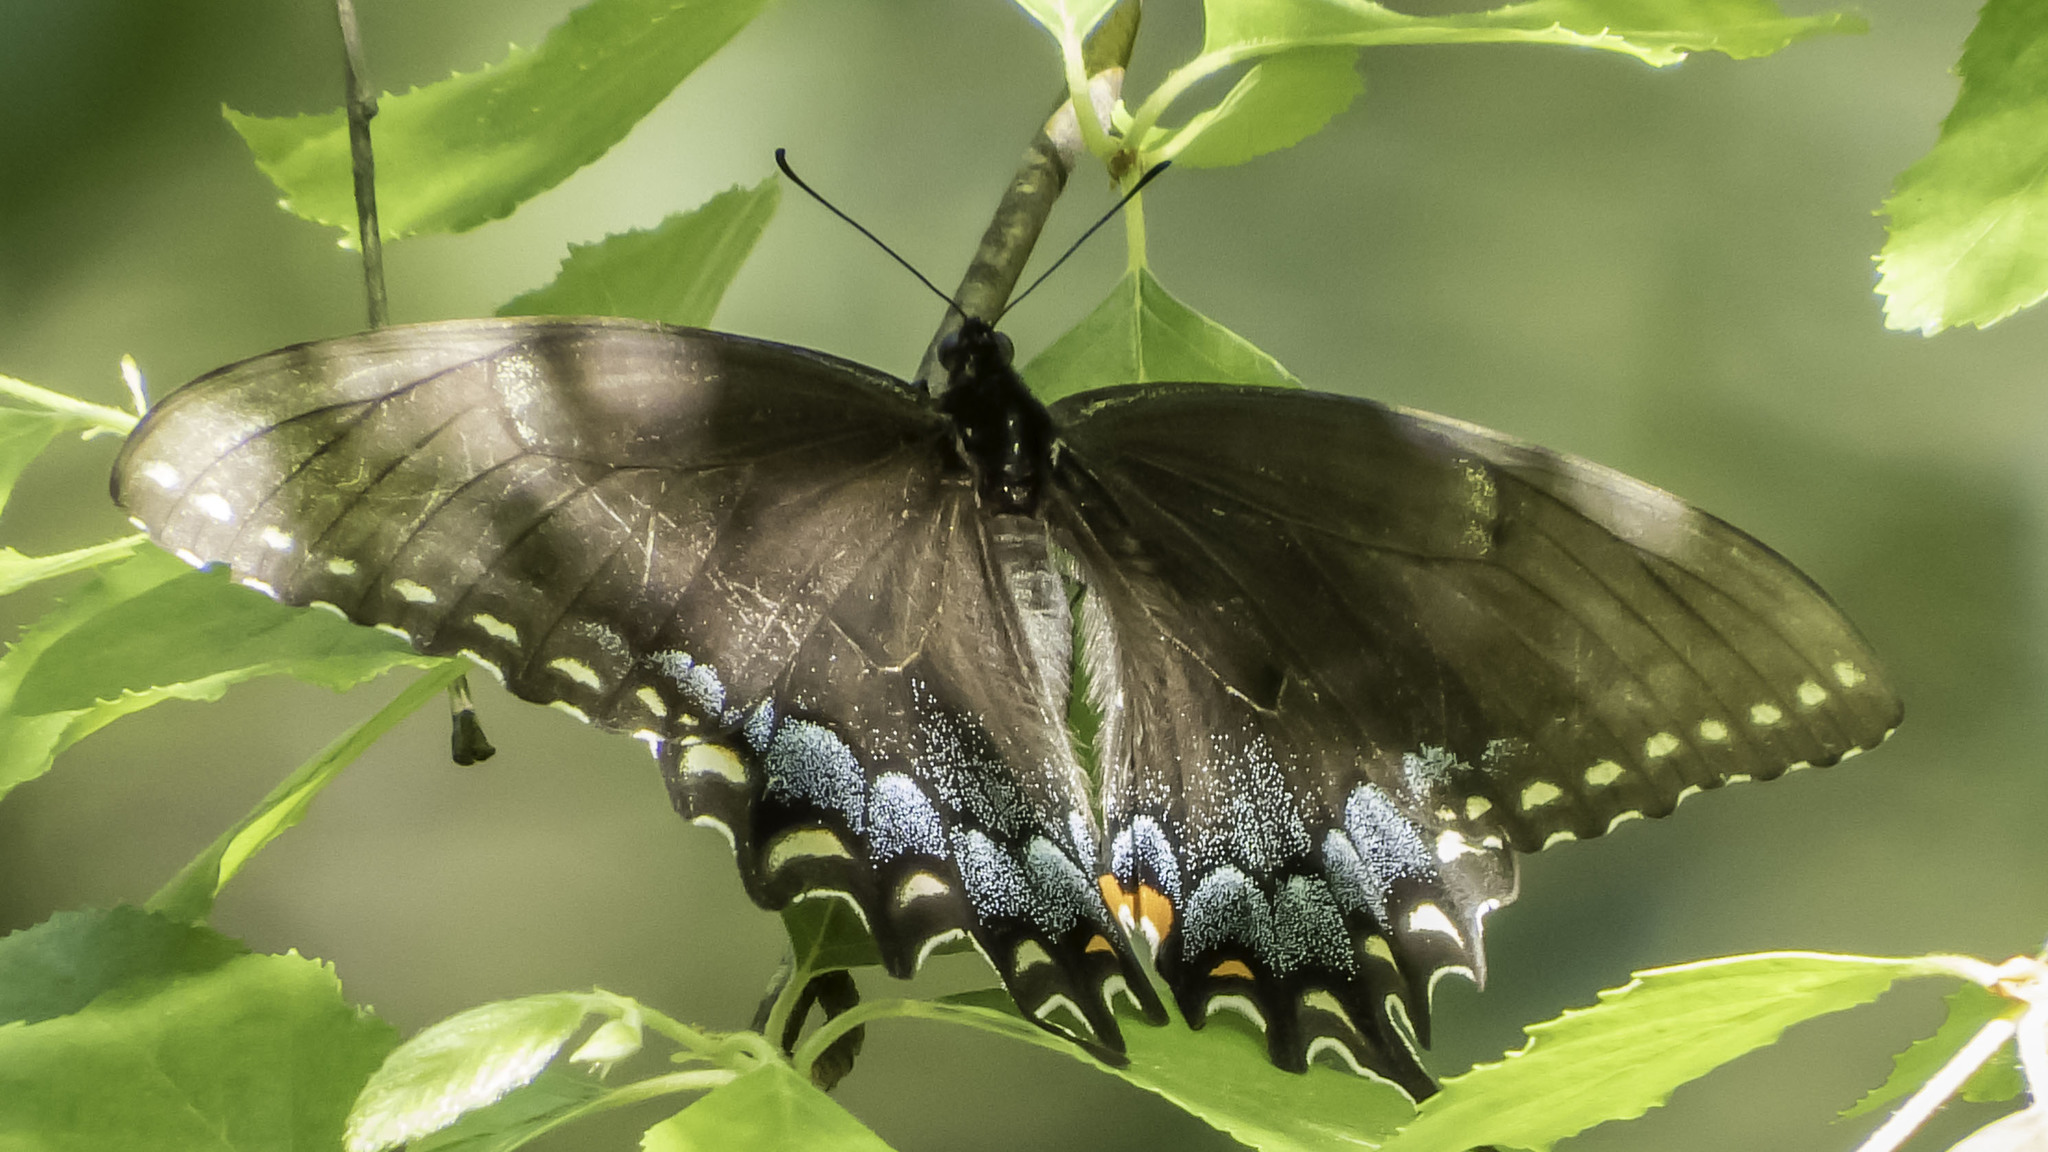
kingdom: Animalia
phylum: Arthropoda
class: Insecta
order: Lepidoptera
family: Papilionidae
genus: Papilio
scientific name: Papilio glaucus
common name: Tiger swallowtail
